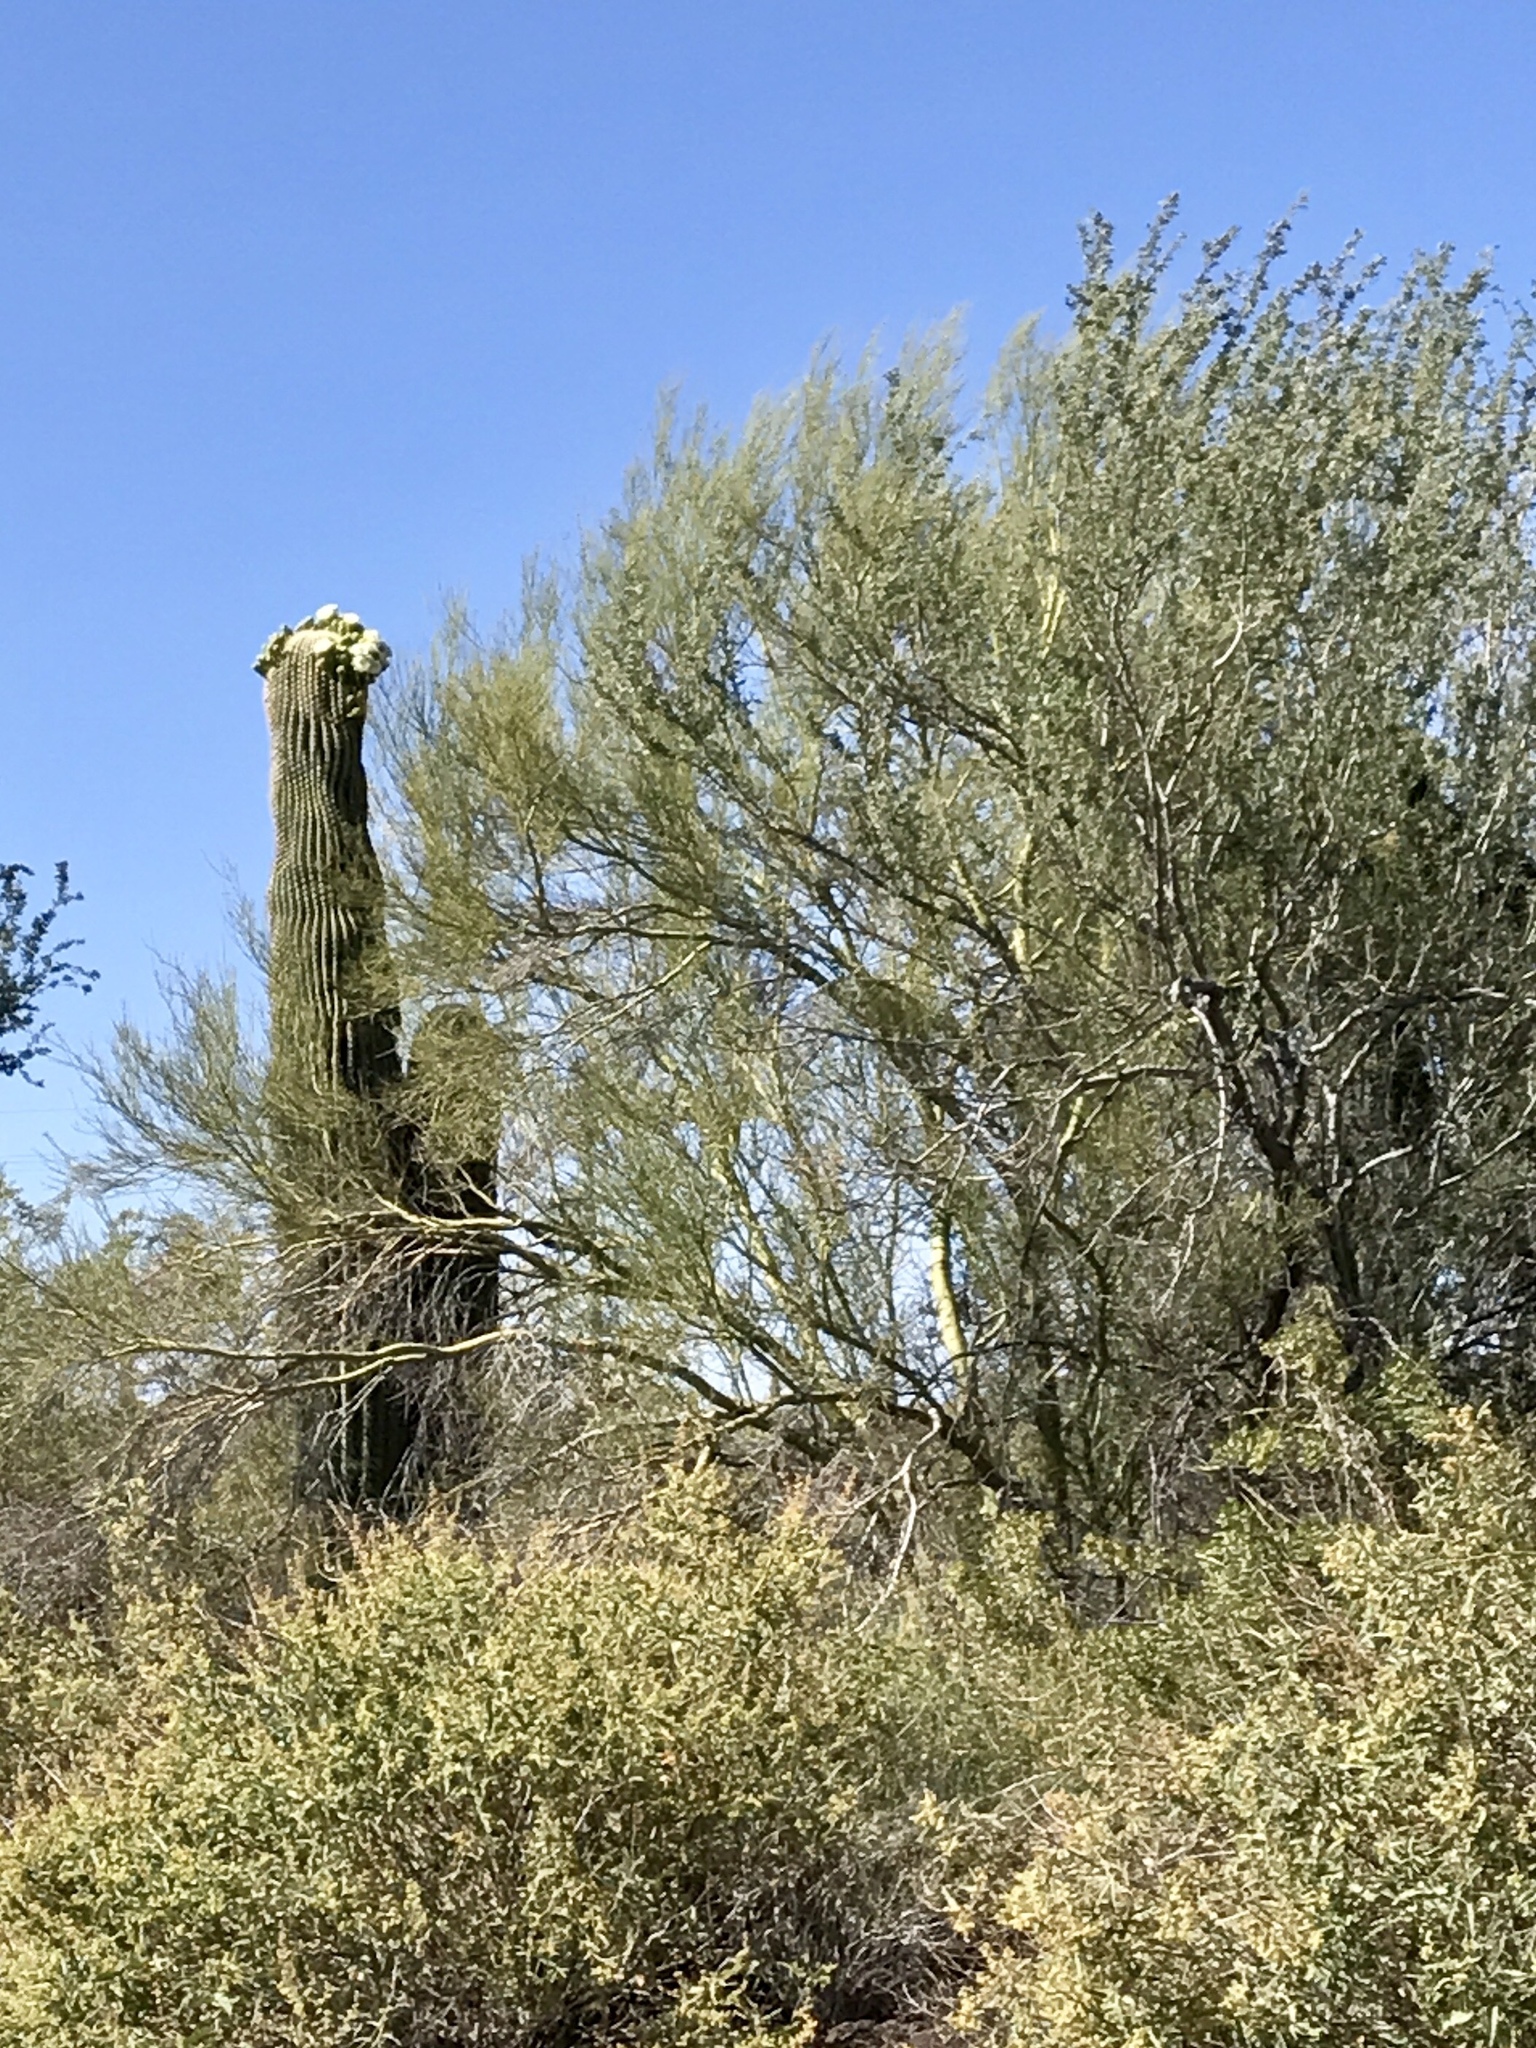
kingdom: Plantae
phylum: Tracheophyta
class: Magnoliopsida
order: Fabales
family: Fabaceae
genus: Parkinsonia
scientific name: Parkinsonia microphylla
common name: Yellow paloverde
